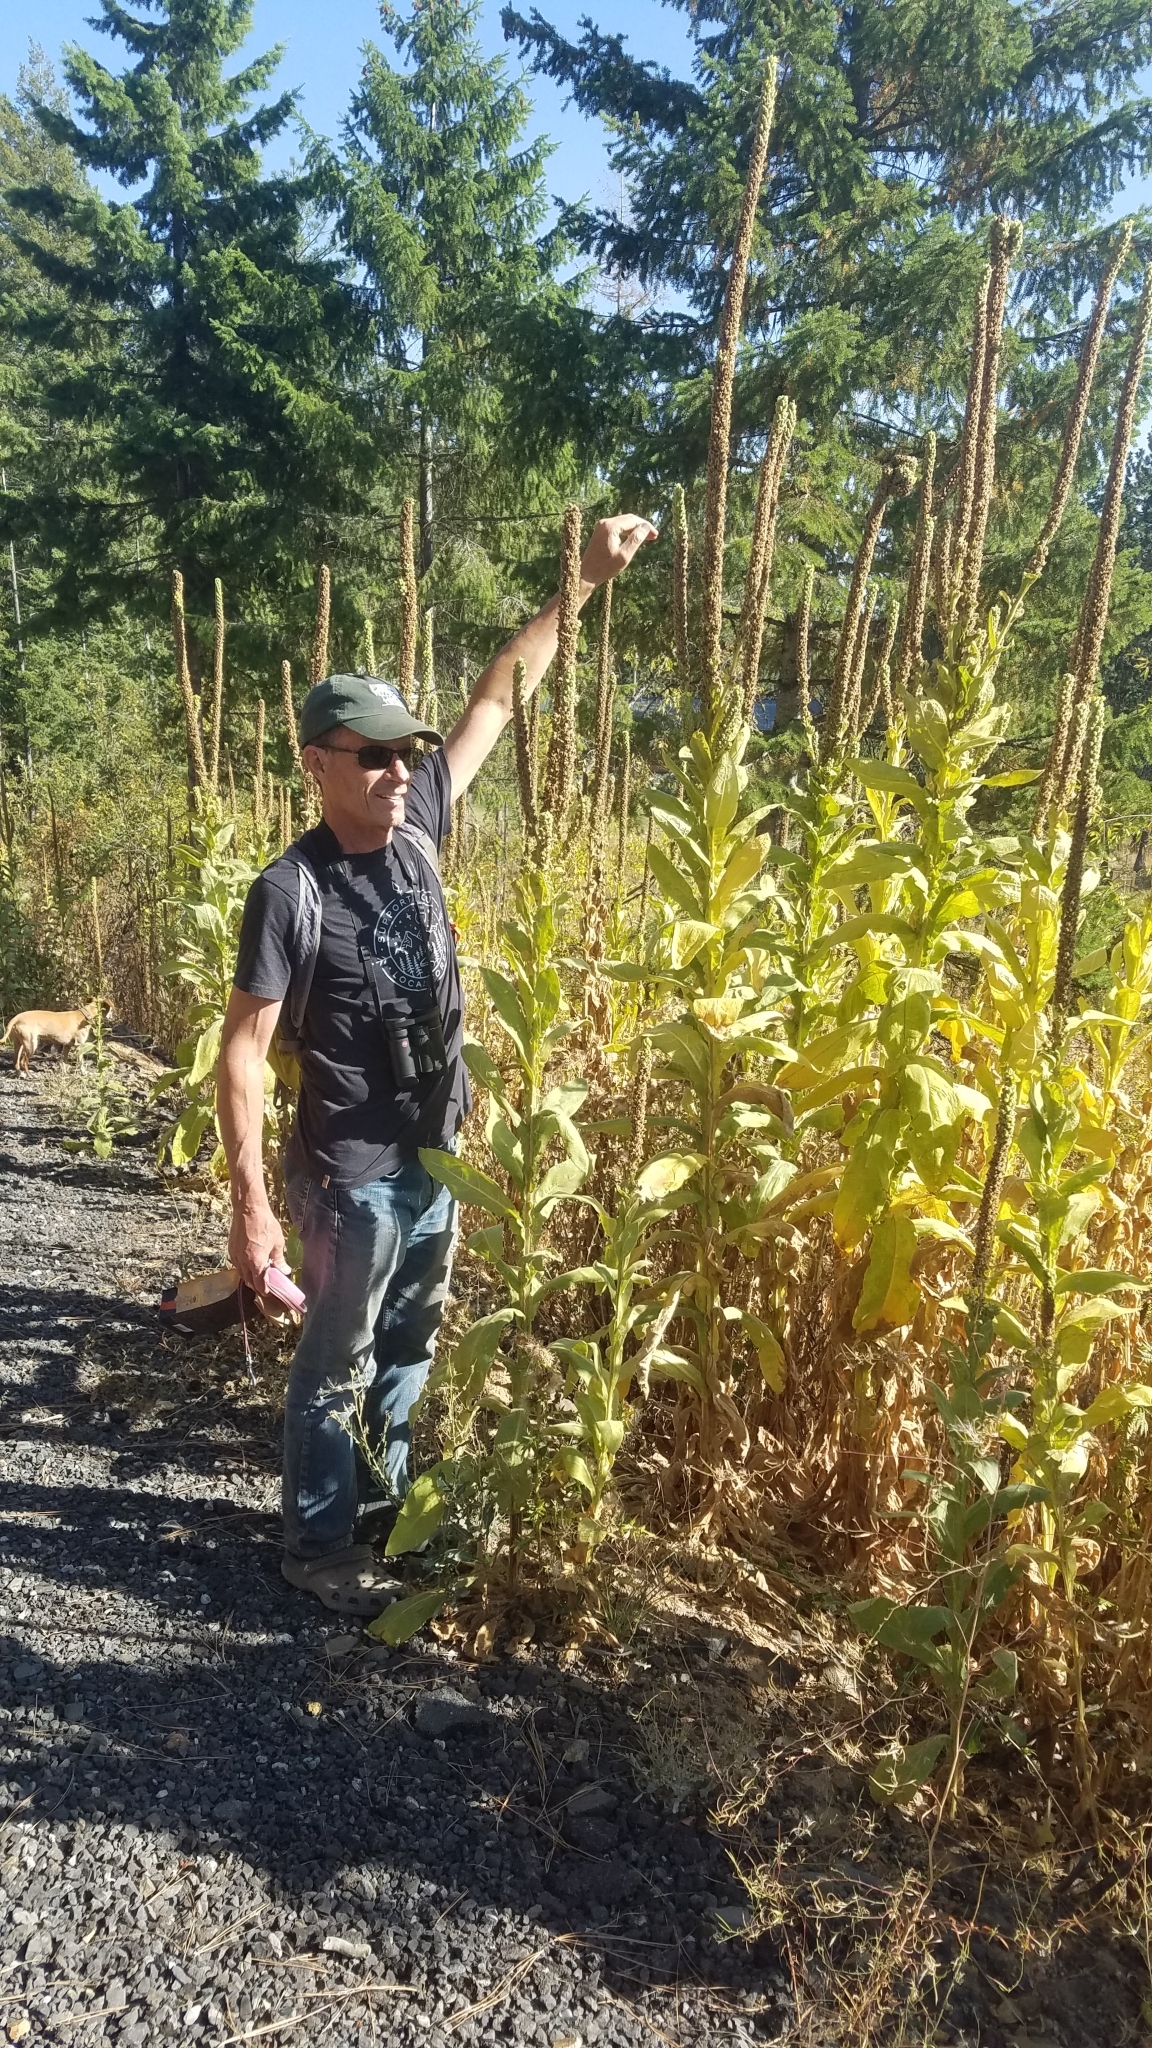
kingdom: Plantae
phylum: Tracheophyta
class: Magnoliopsida
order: Lamiales
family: Scrophulariaceae
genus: Verbascum
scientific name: Verbascum thapsus
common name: Common mullein
